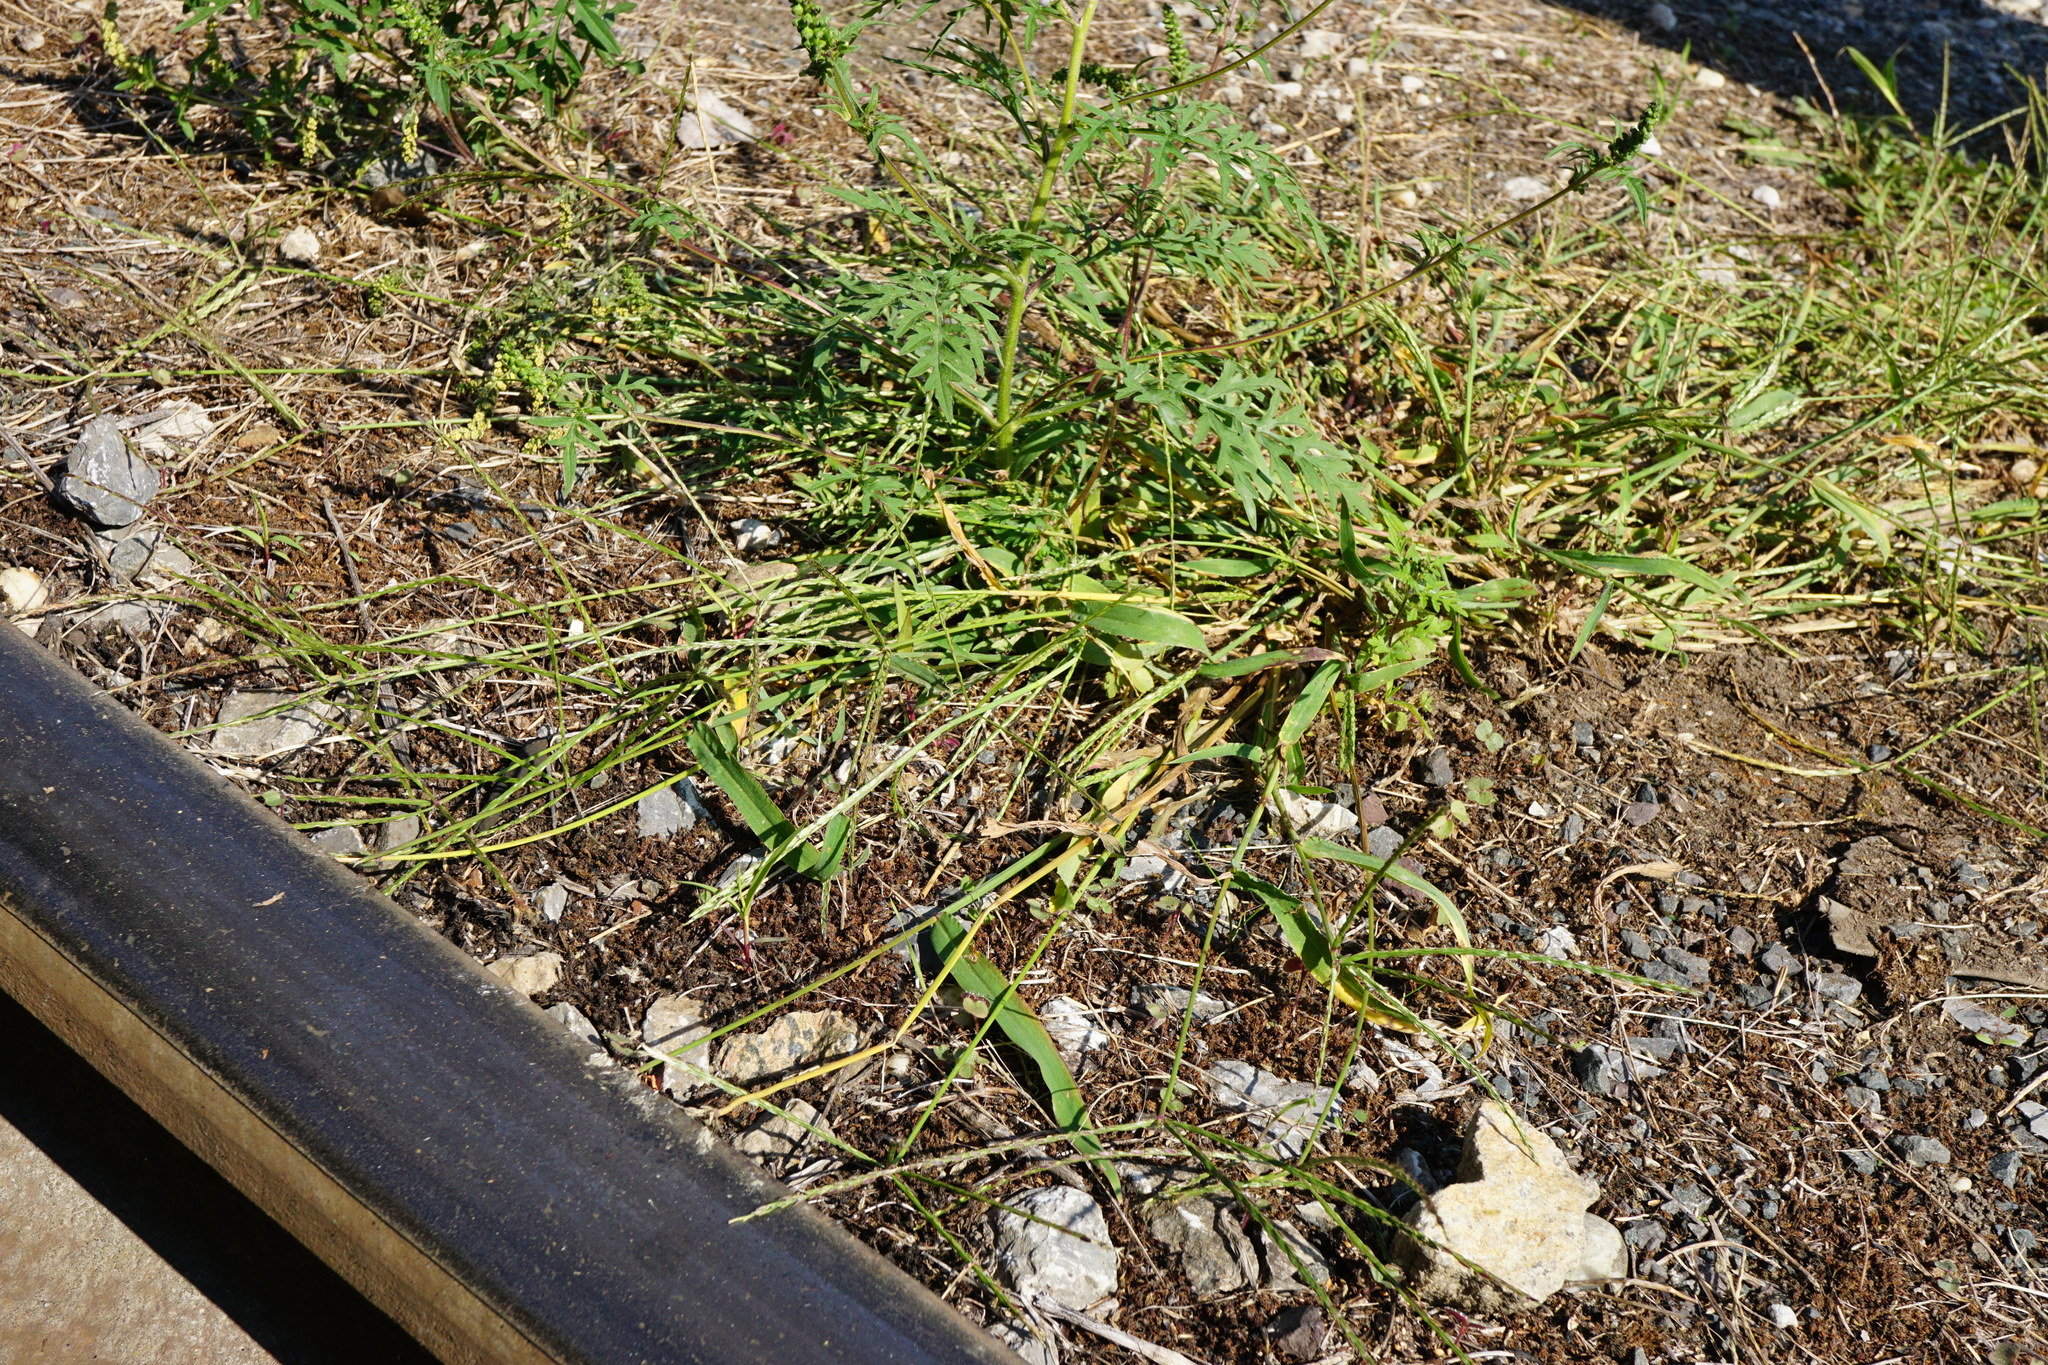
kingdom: Plantae
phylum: Tracheophyta
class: Liliopsida
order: Poales
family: Poaceae
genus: Digitaria
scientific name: Digitaria sanguinalis
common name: Hairy crabgrass
